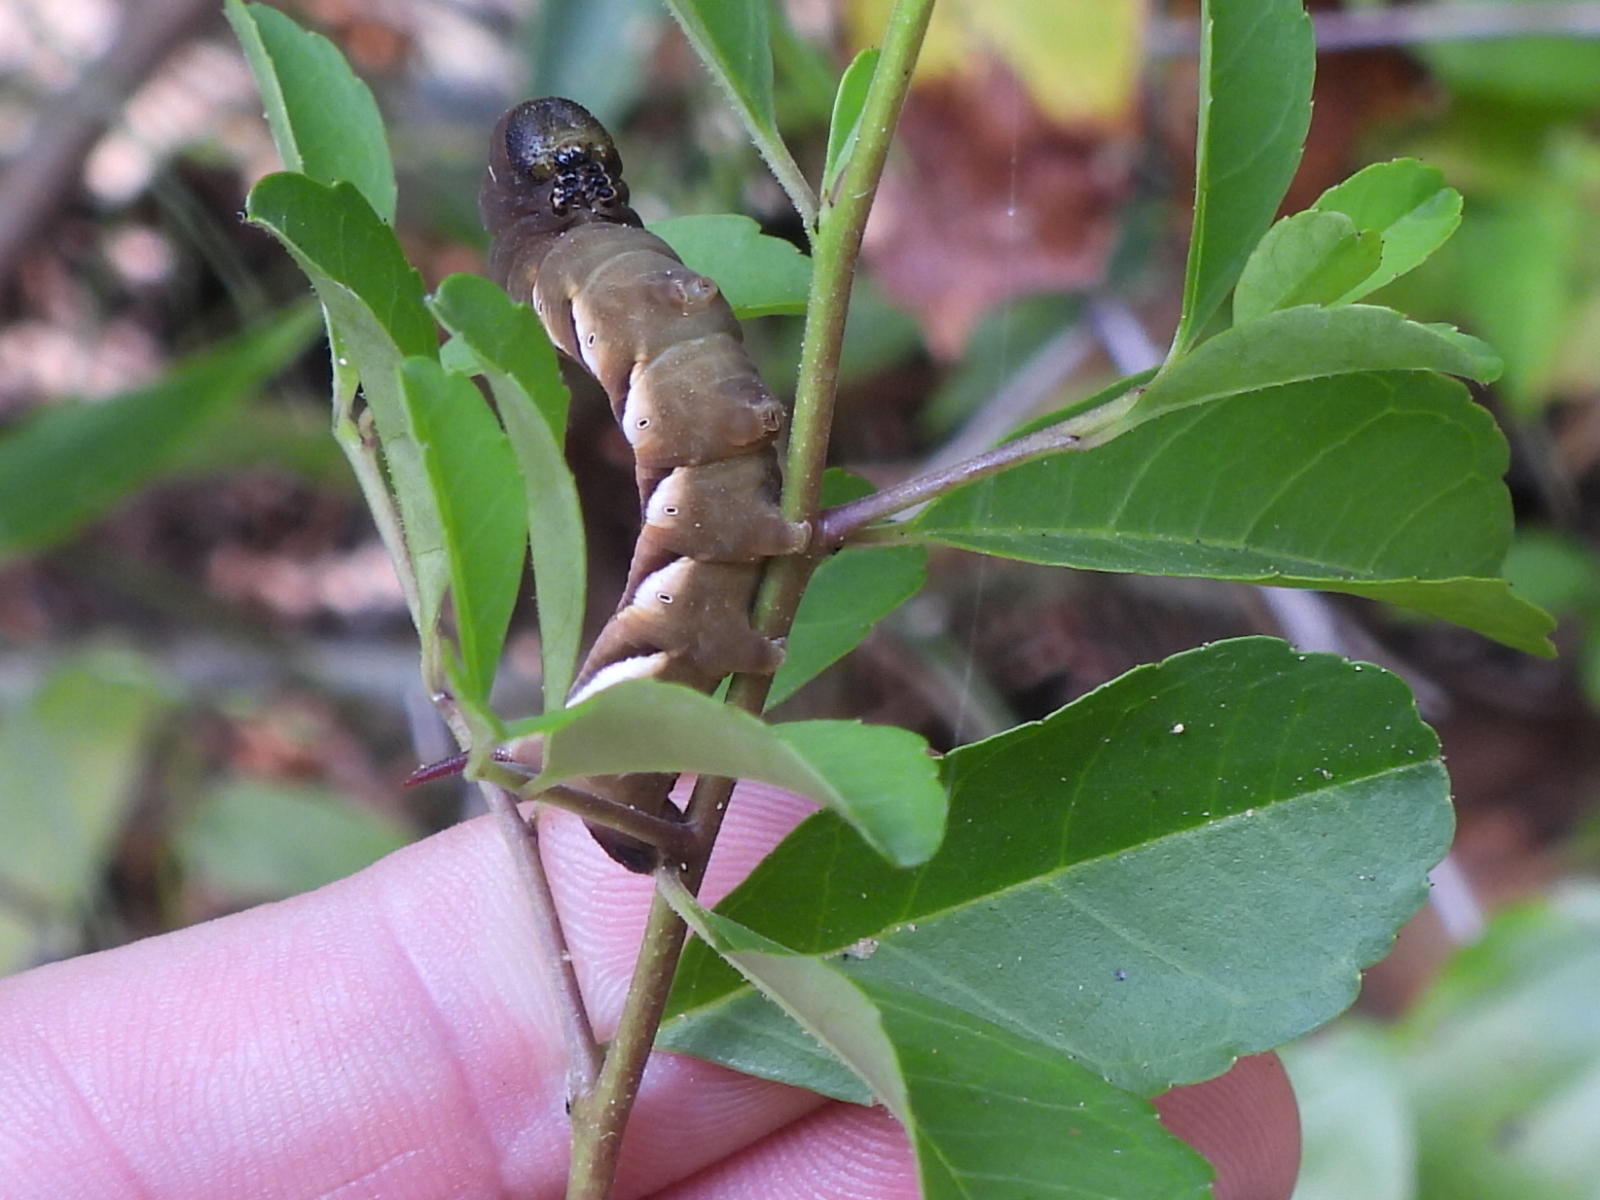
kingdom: Animalia
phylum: Arthropoda
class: Insecta
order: Lepidoptera
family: Sphingidae
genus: Dolba
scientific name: Dolba hyloeus
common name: Pawpaw sphinx
